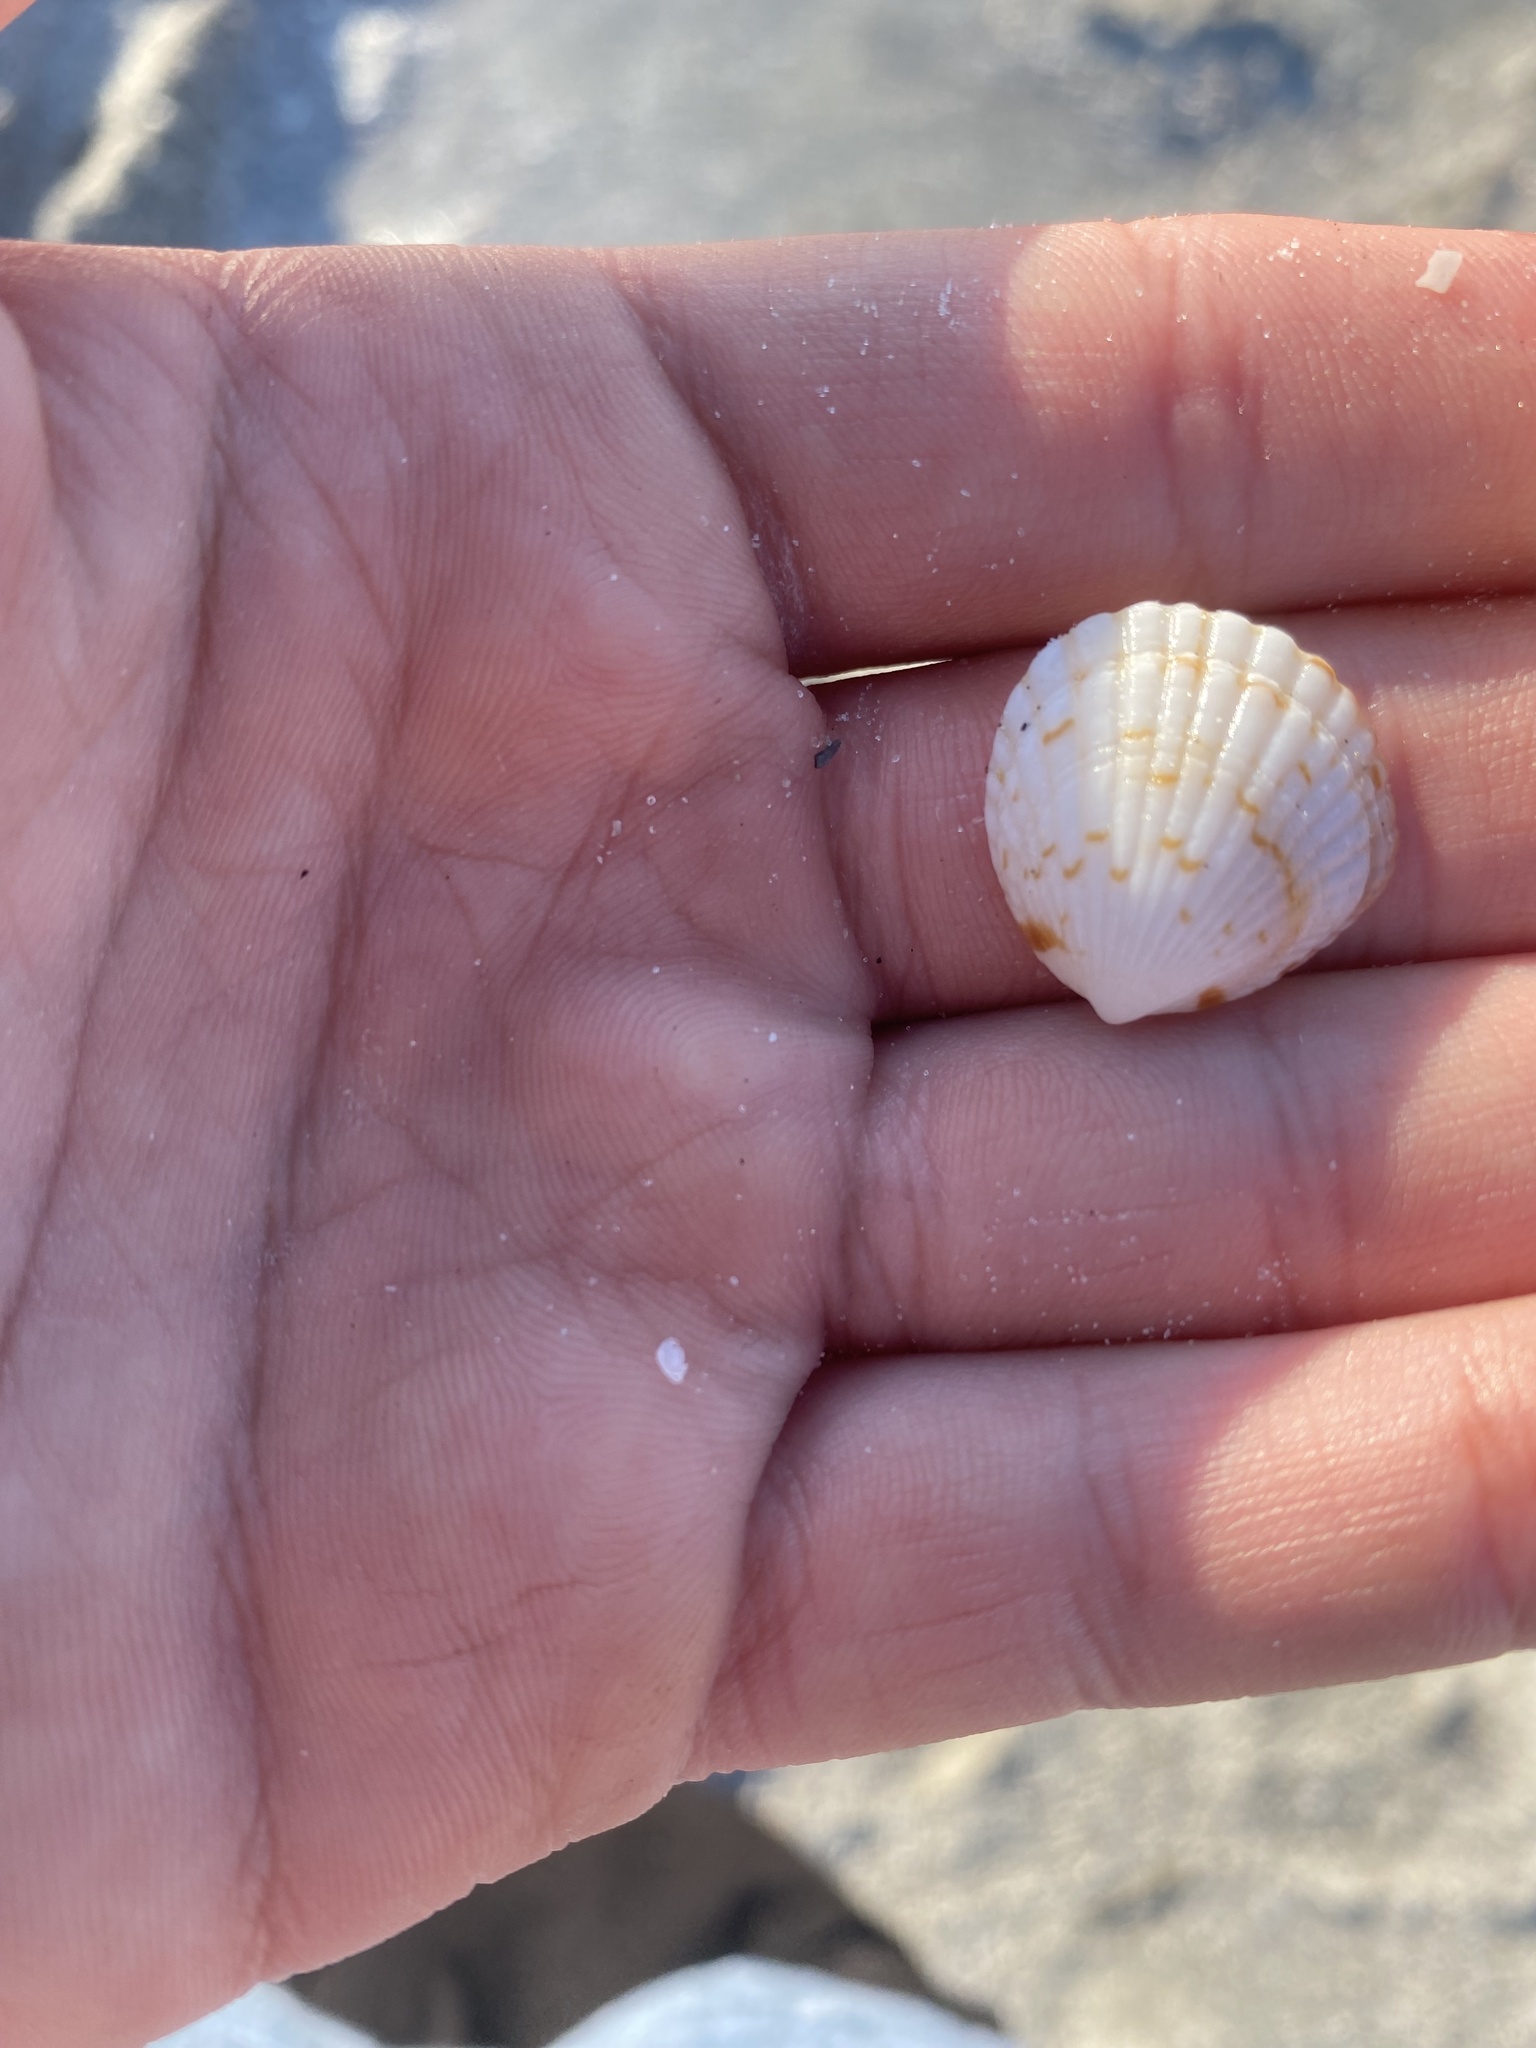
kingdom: Animalia
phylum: Mollusca
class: Bivalvia
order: Arcida
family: Glycymerididae
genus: Tucetona
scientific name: Tucetona pectinata
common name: Comb bittersweet
